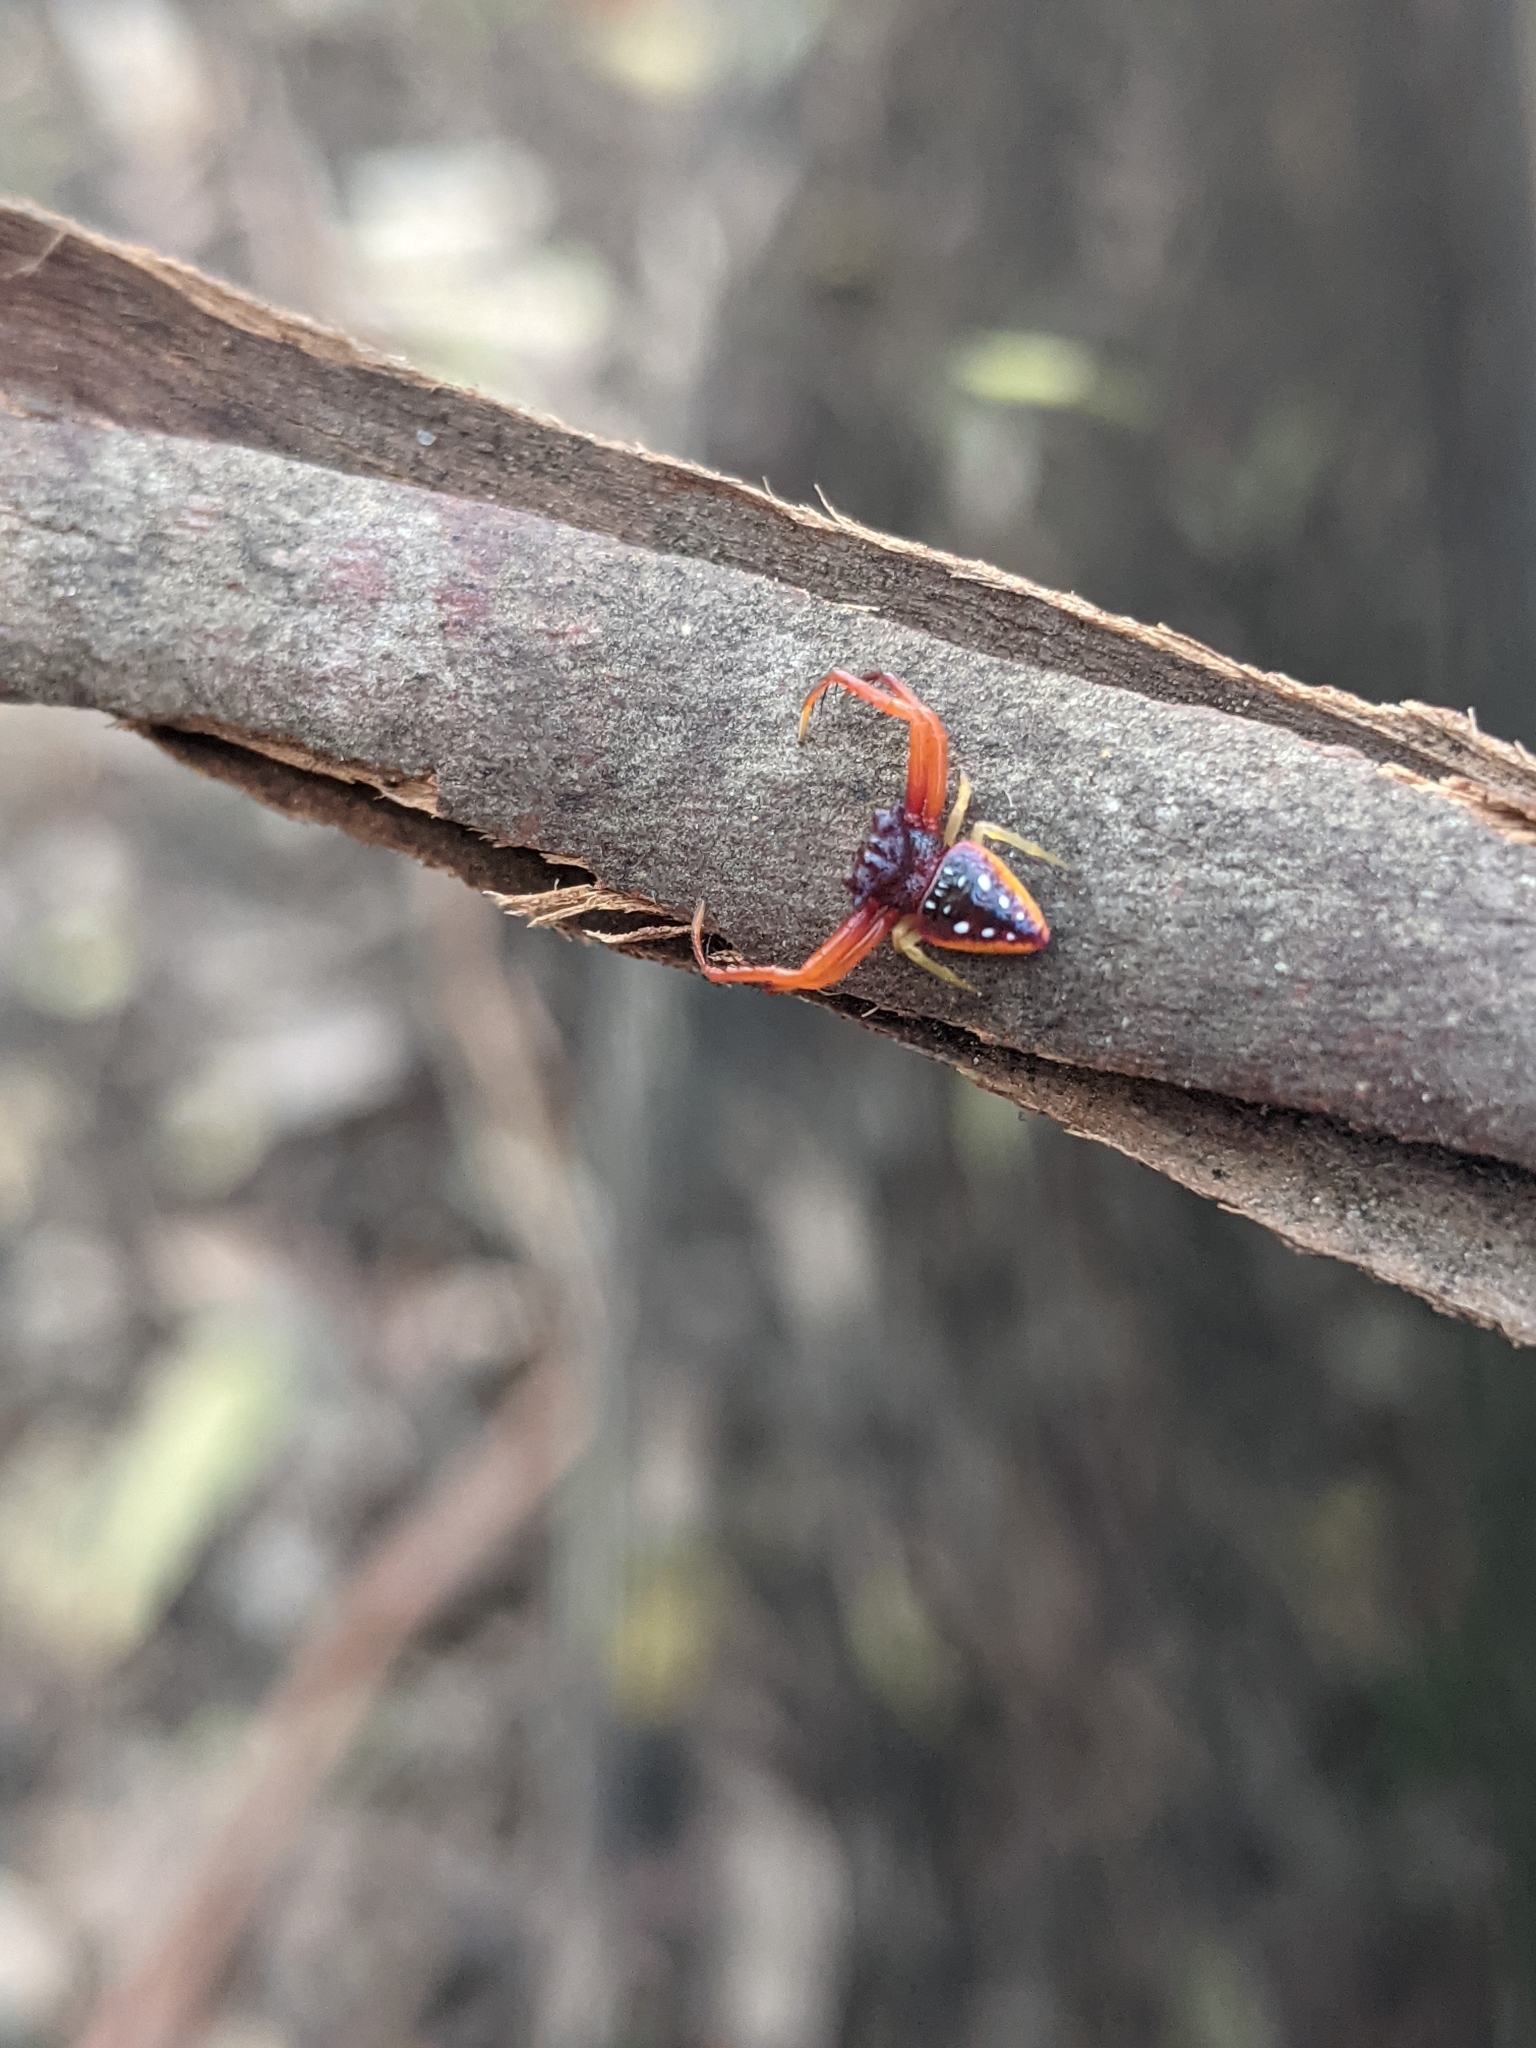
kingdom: Animalia
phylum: Arthropoda
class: Arachnida
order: Araneae
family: Arkyidae
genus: Arkys
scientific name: Arkys cornutus
